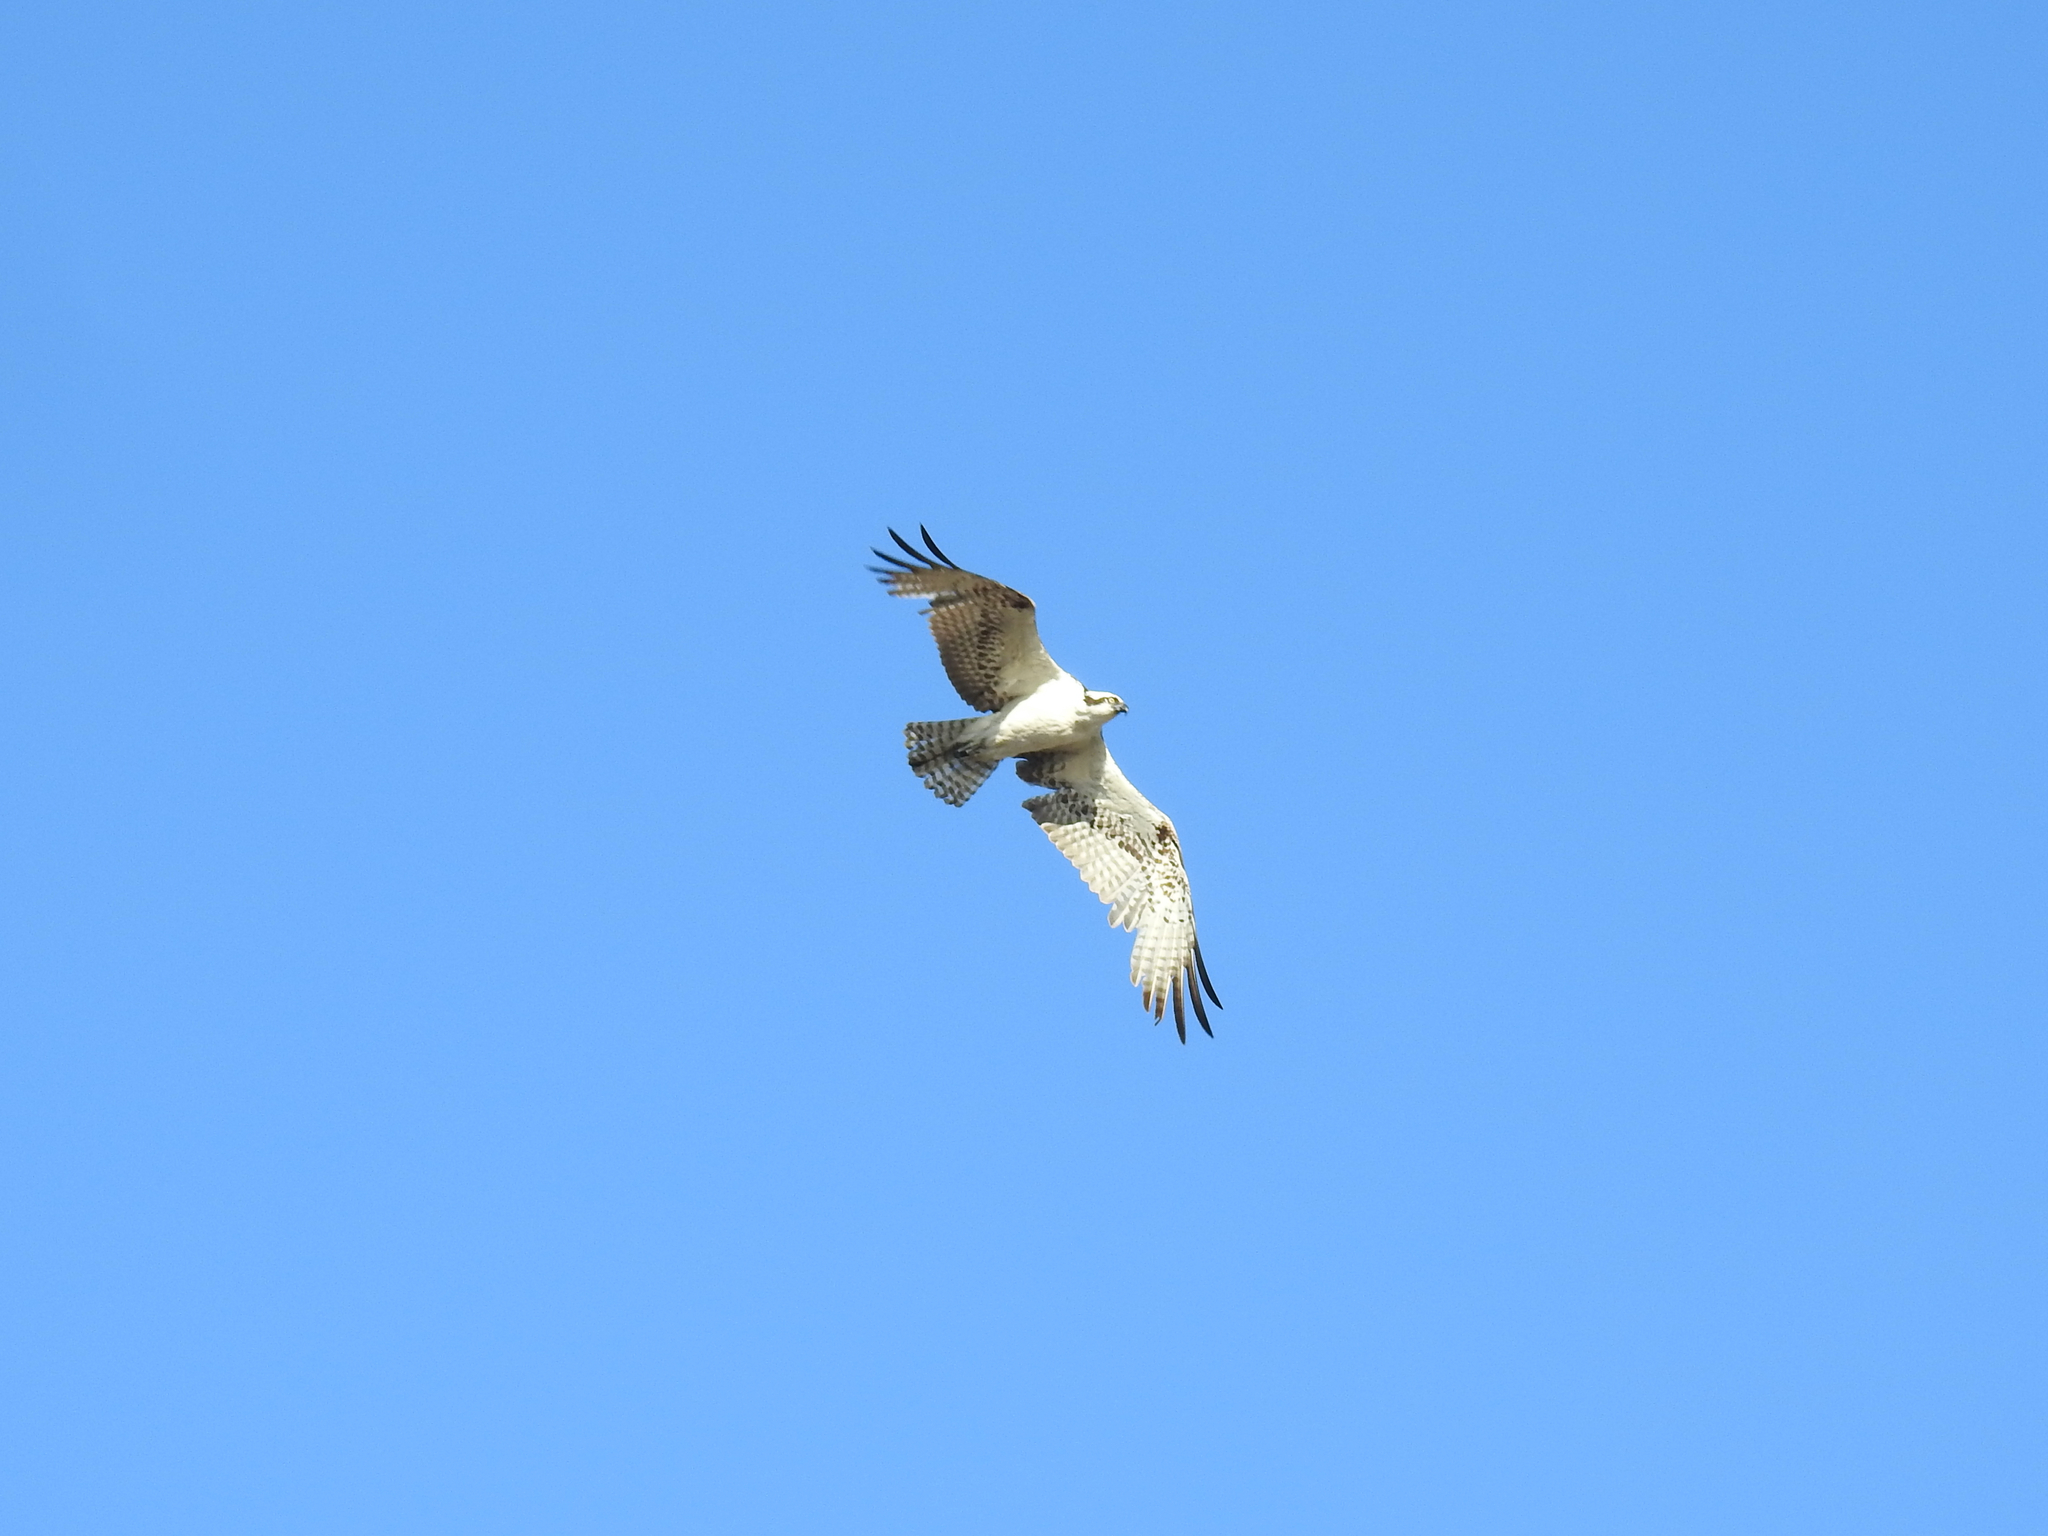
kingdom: Animalia
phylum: Chordata
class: Aves
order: Accipitriformes
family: Pandionidae
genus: Pandion
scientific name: Pandion haliaetus
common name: Osprey
